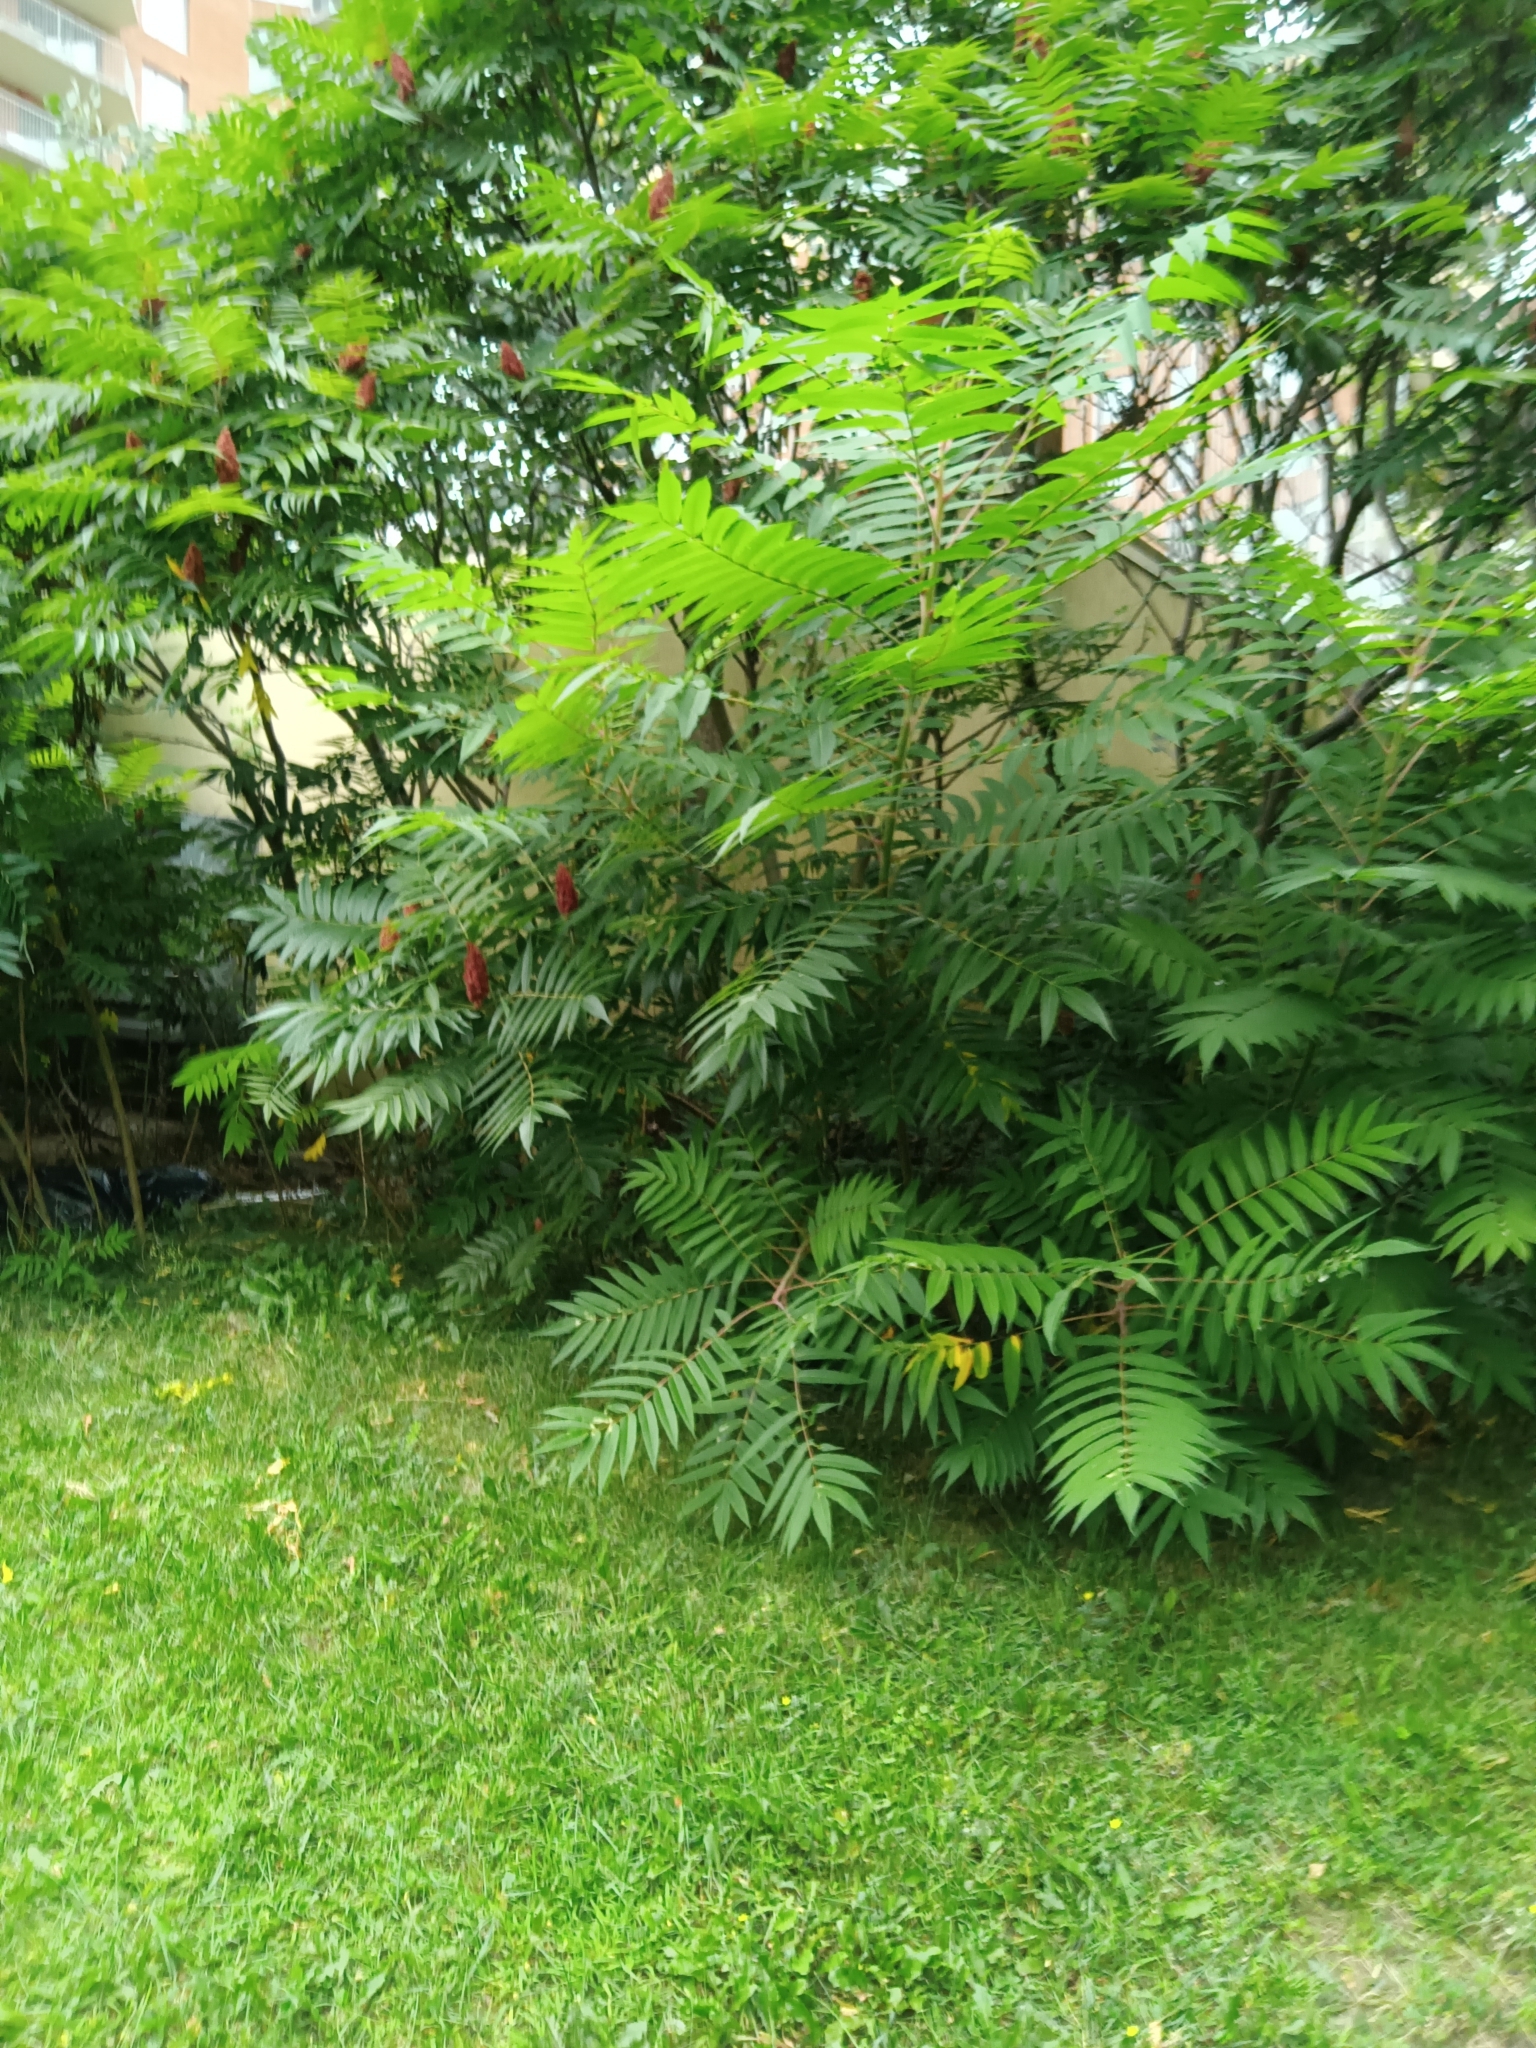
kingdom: Plantae
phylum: Tracheophyta
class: Magnoliopsida
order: Sapindales
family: Anacardiaceae
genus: Rhus
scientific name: Rhus typhina
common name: Staghorn sumac
